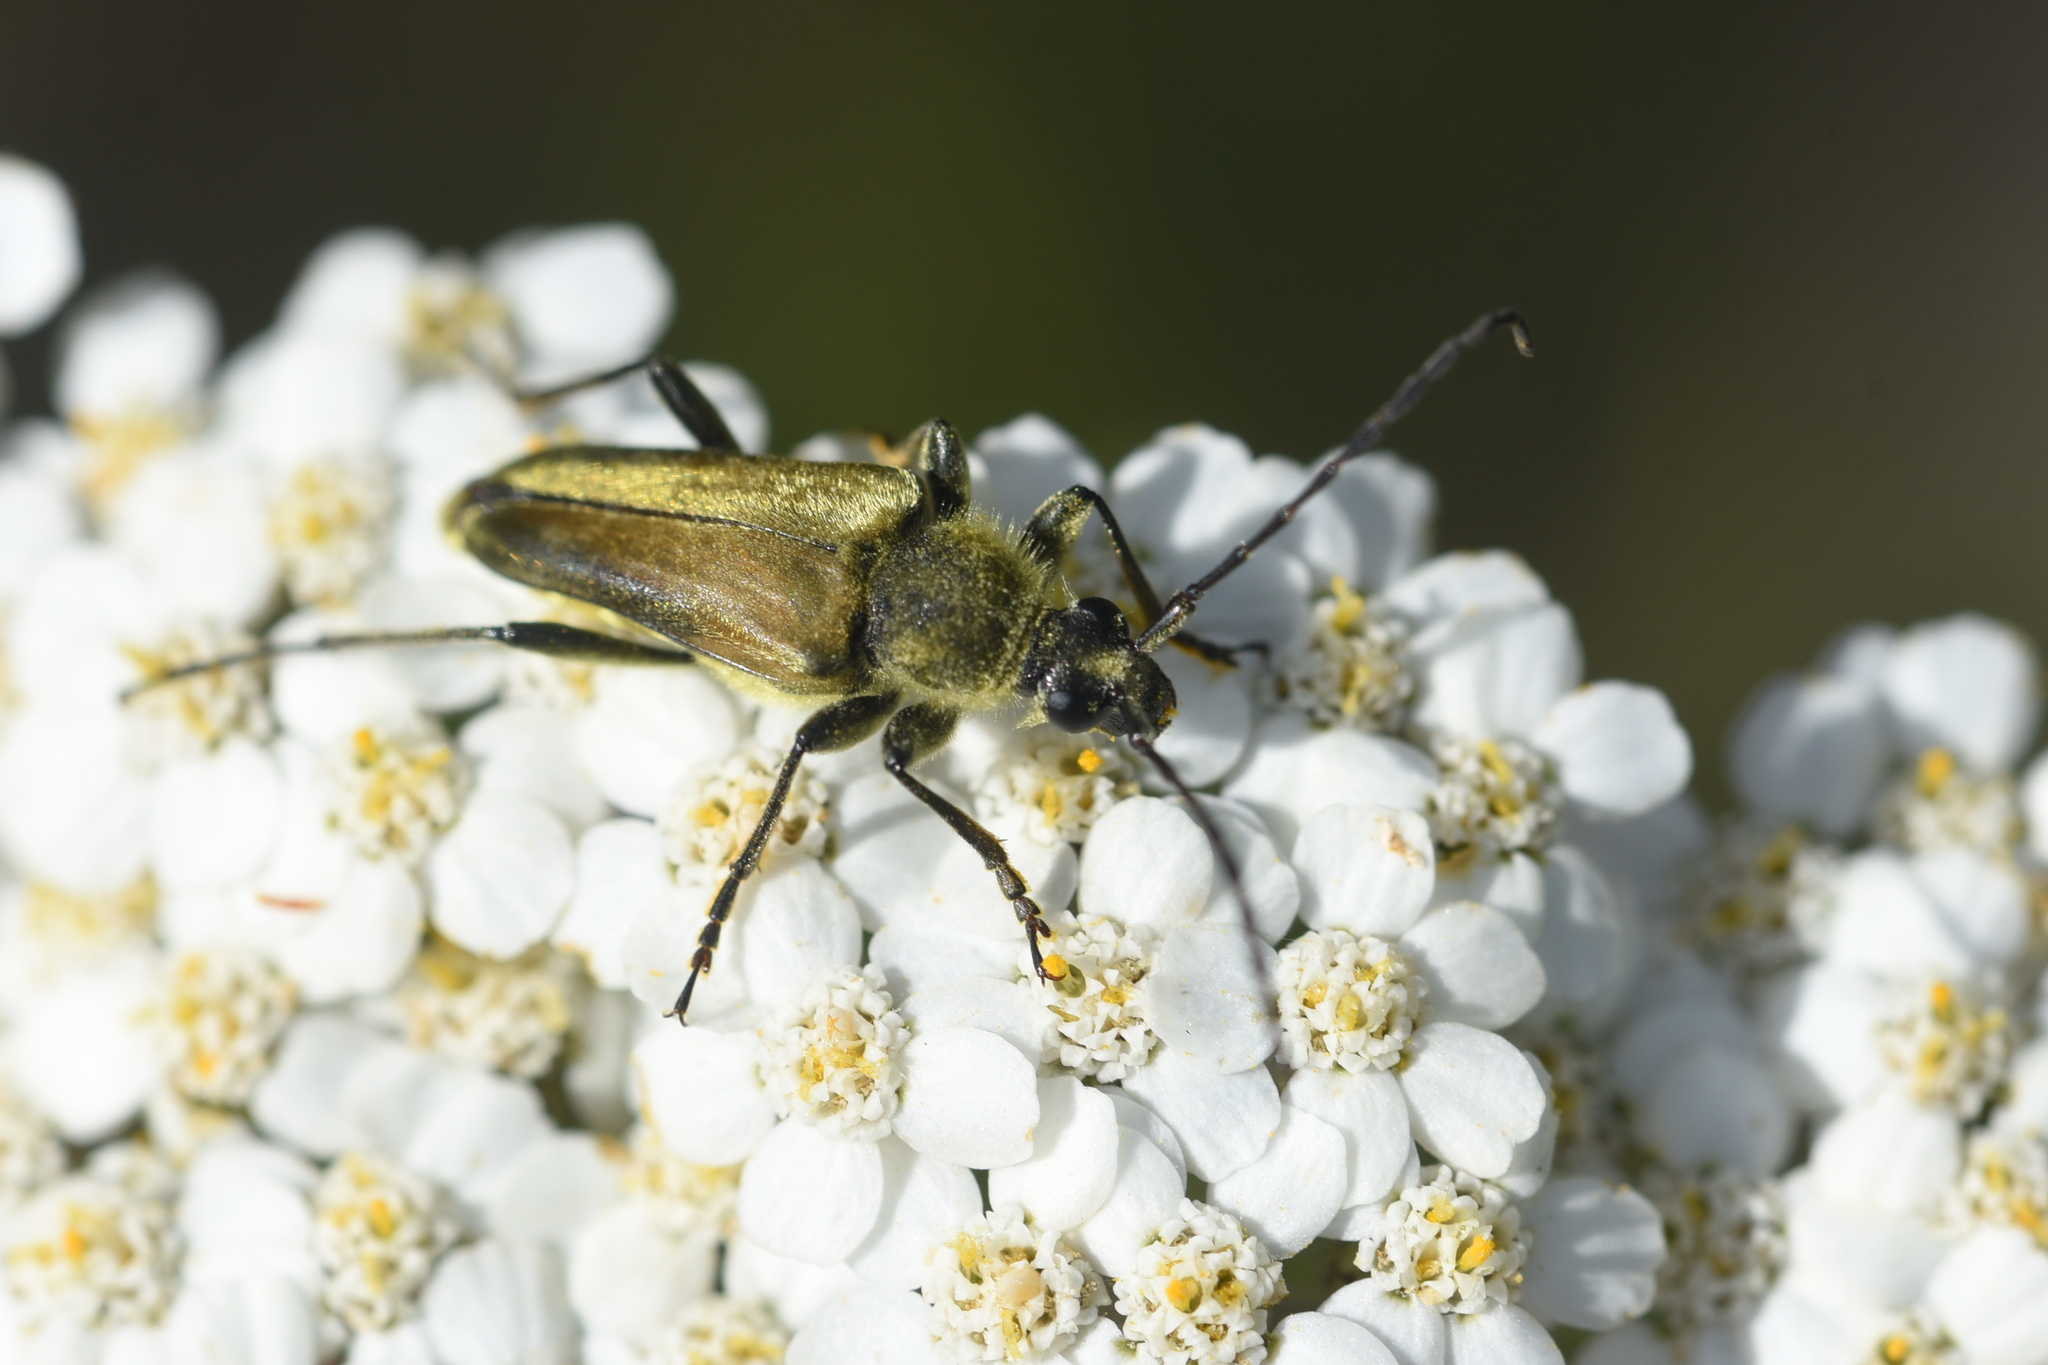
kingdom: Animalia
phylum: Arthropoda
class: Insecta
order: Coleoptera
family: Cerambycidae
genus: Cosmosalia
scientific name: Cosmosalia chrysocoma
